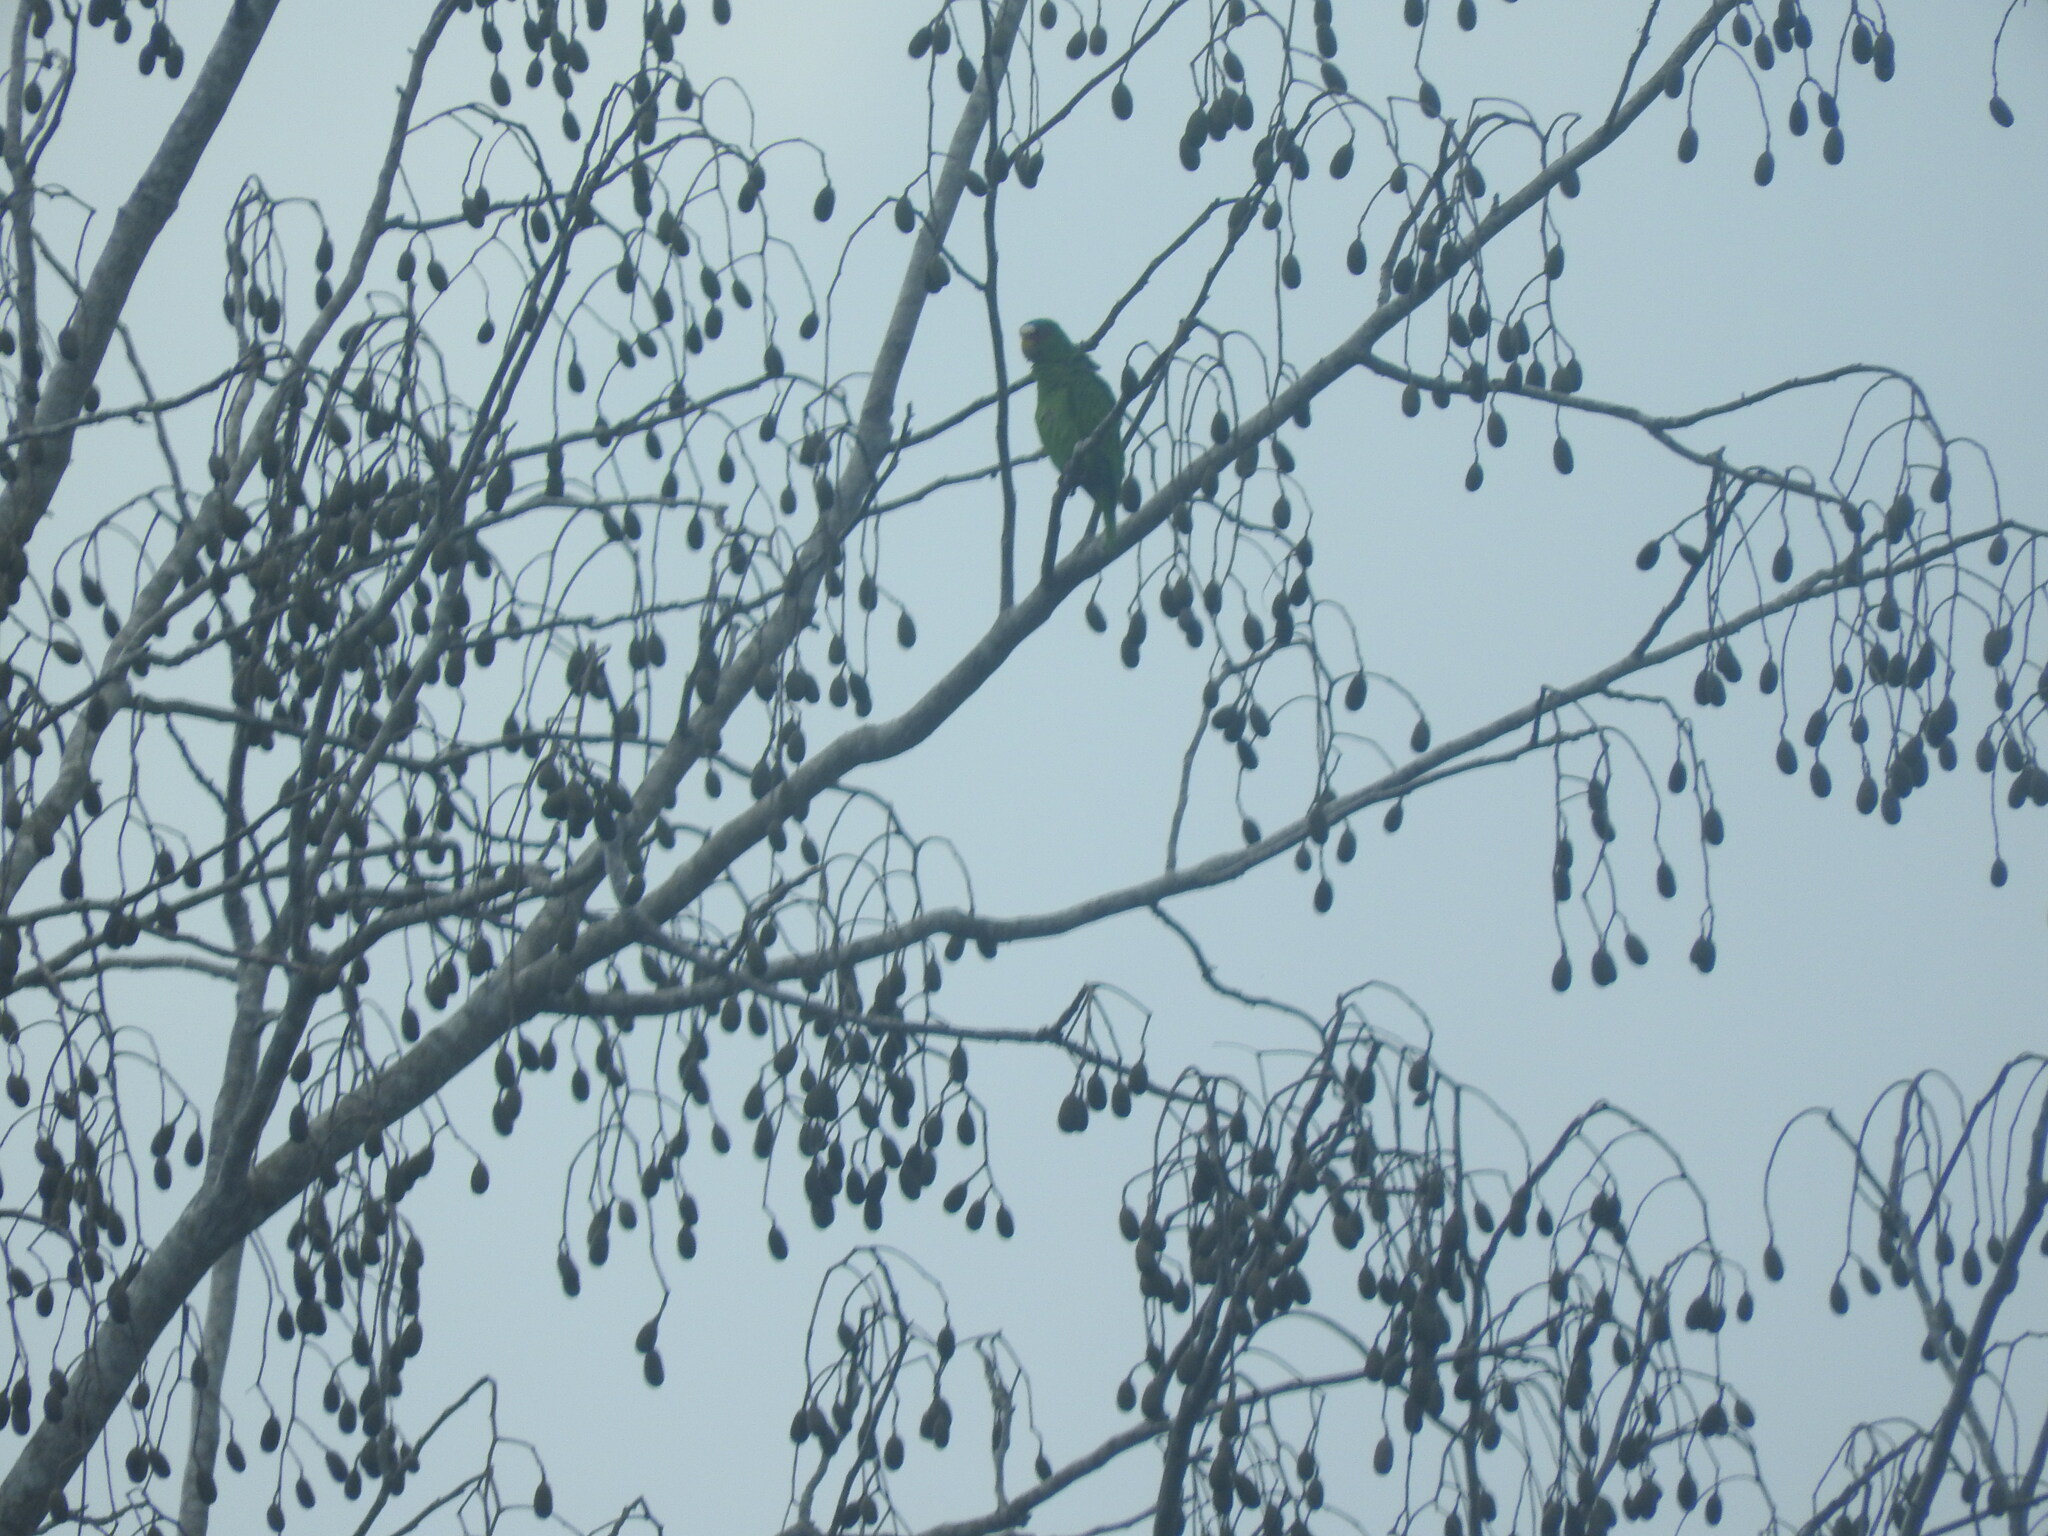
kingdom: Animalia
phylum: Chordata
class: Aves
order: Psittaciformes
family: Psittacidae
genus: Amazona
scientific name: Amazona albifrons
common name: White-fronted amazon
